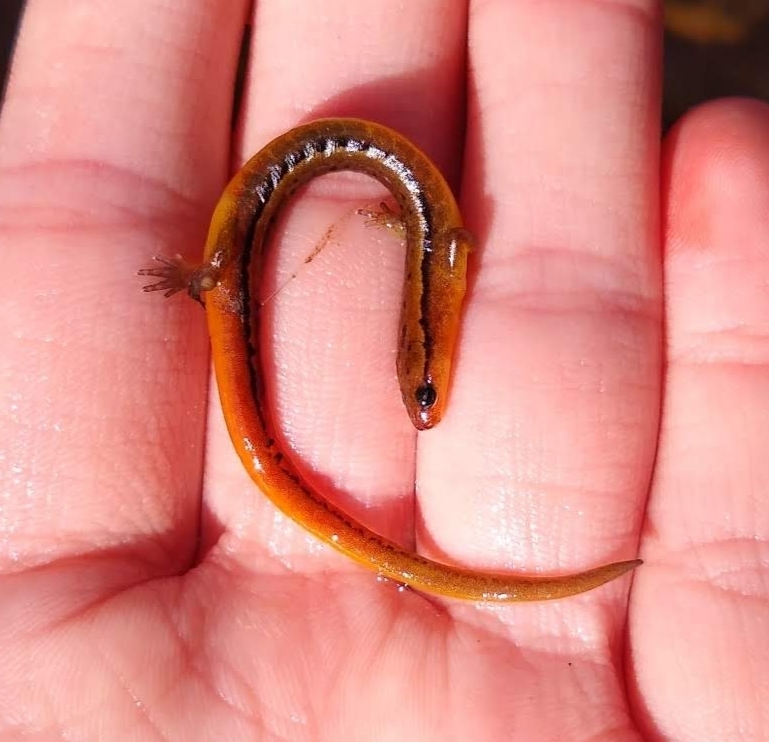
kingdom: Animalia
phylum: Chordata
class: Amphibia
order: Caudata
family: Plethodontidae
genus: Eurycea
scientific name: Eurycea cirrigera
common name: Southern two-lined salamander
